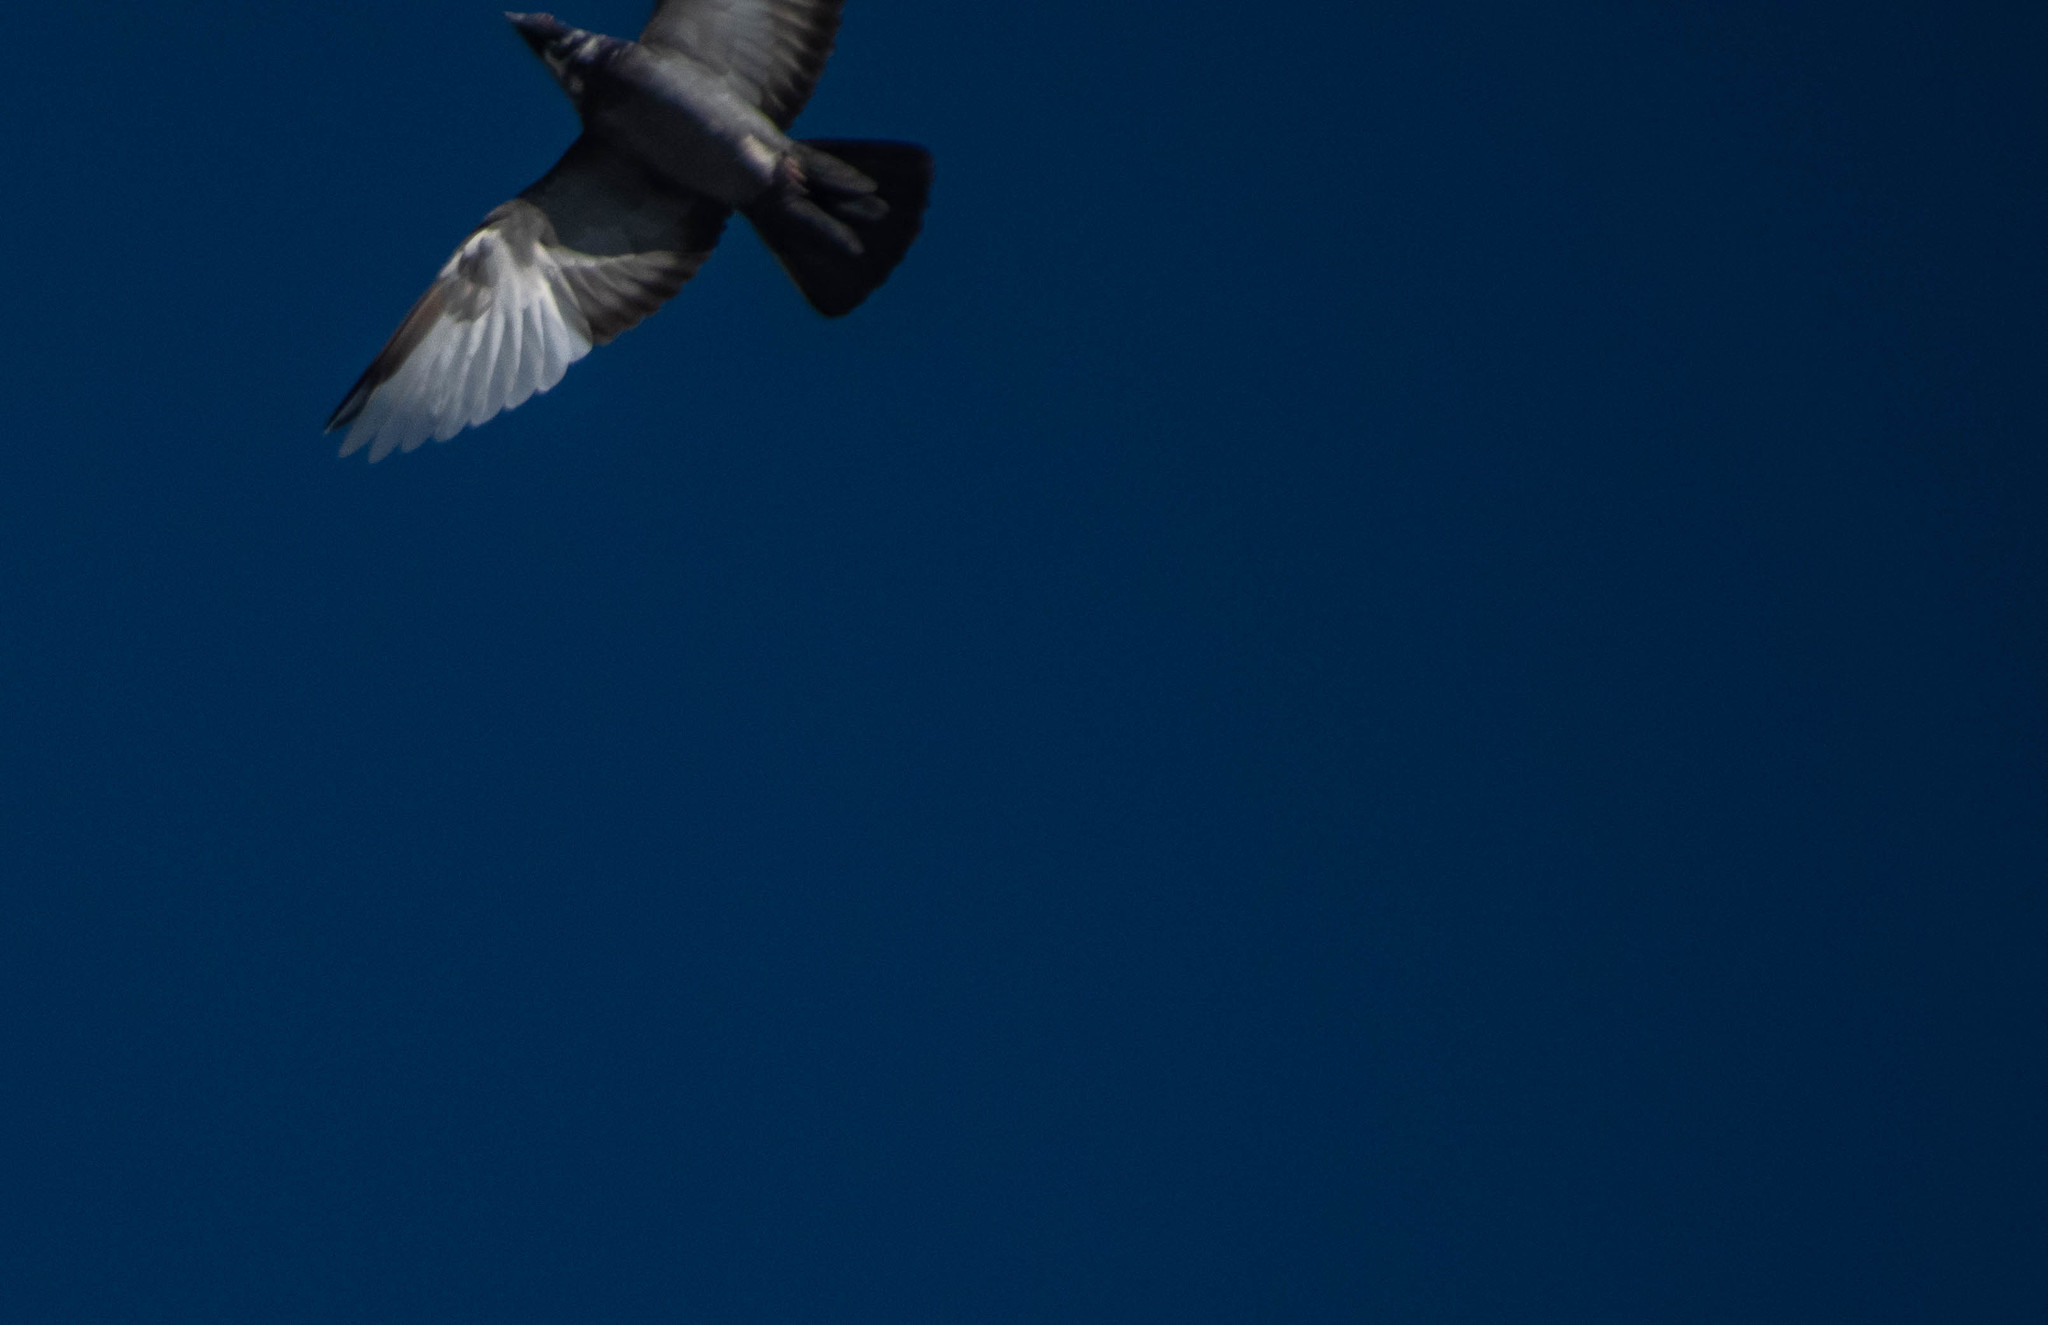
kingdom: Animalia
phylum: Chordata
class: Aves
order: Columbiformes
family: Columbidae
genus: Columba
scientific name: Columba livia
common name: Rock pigeon
